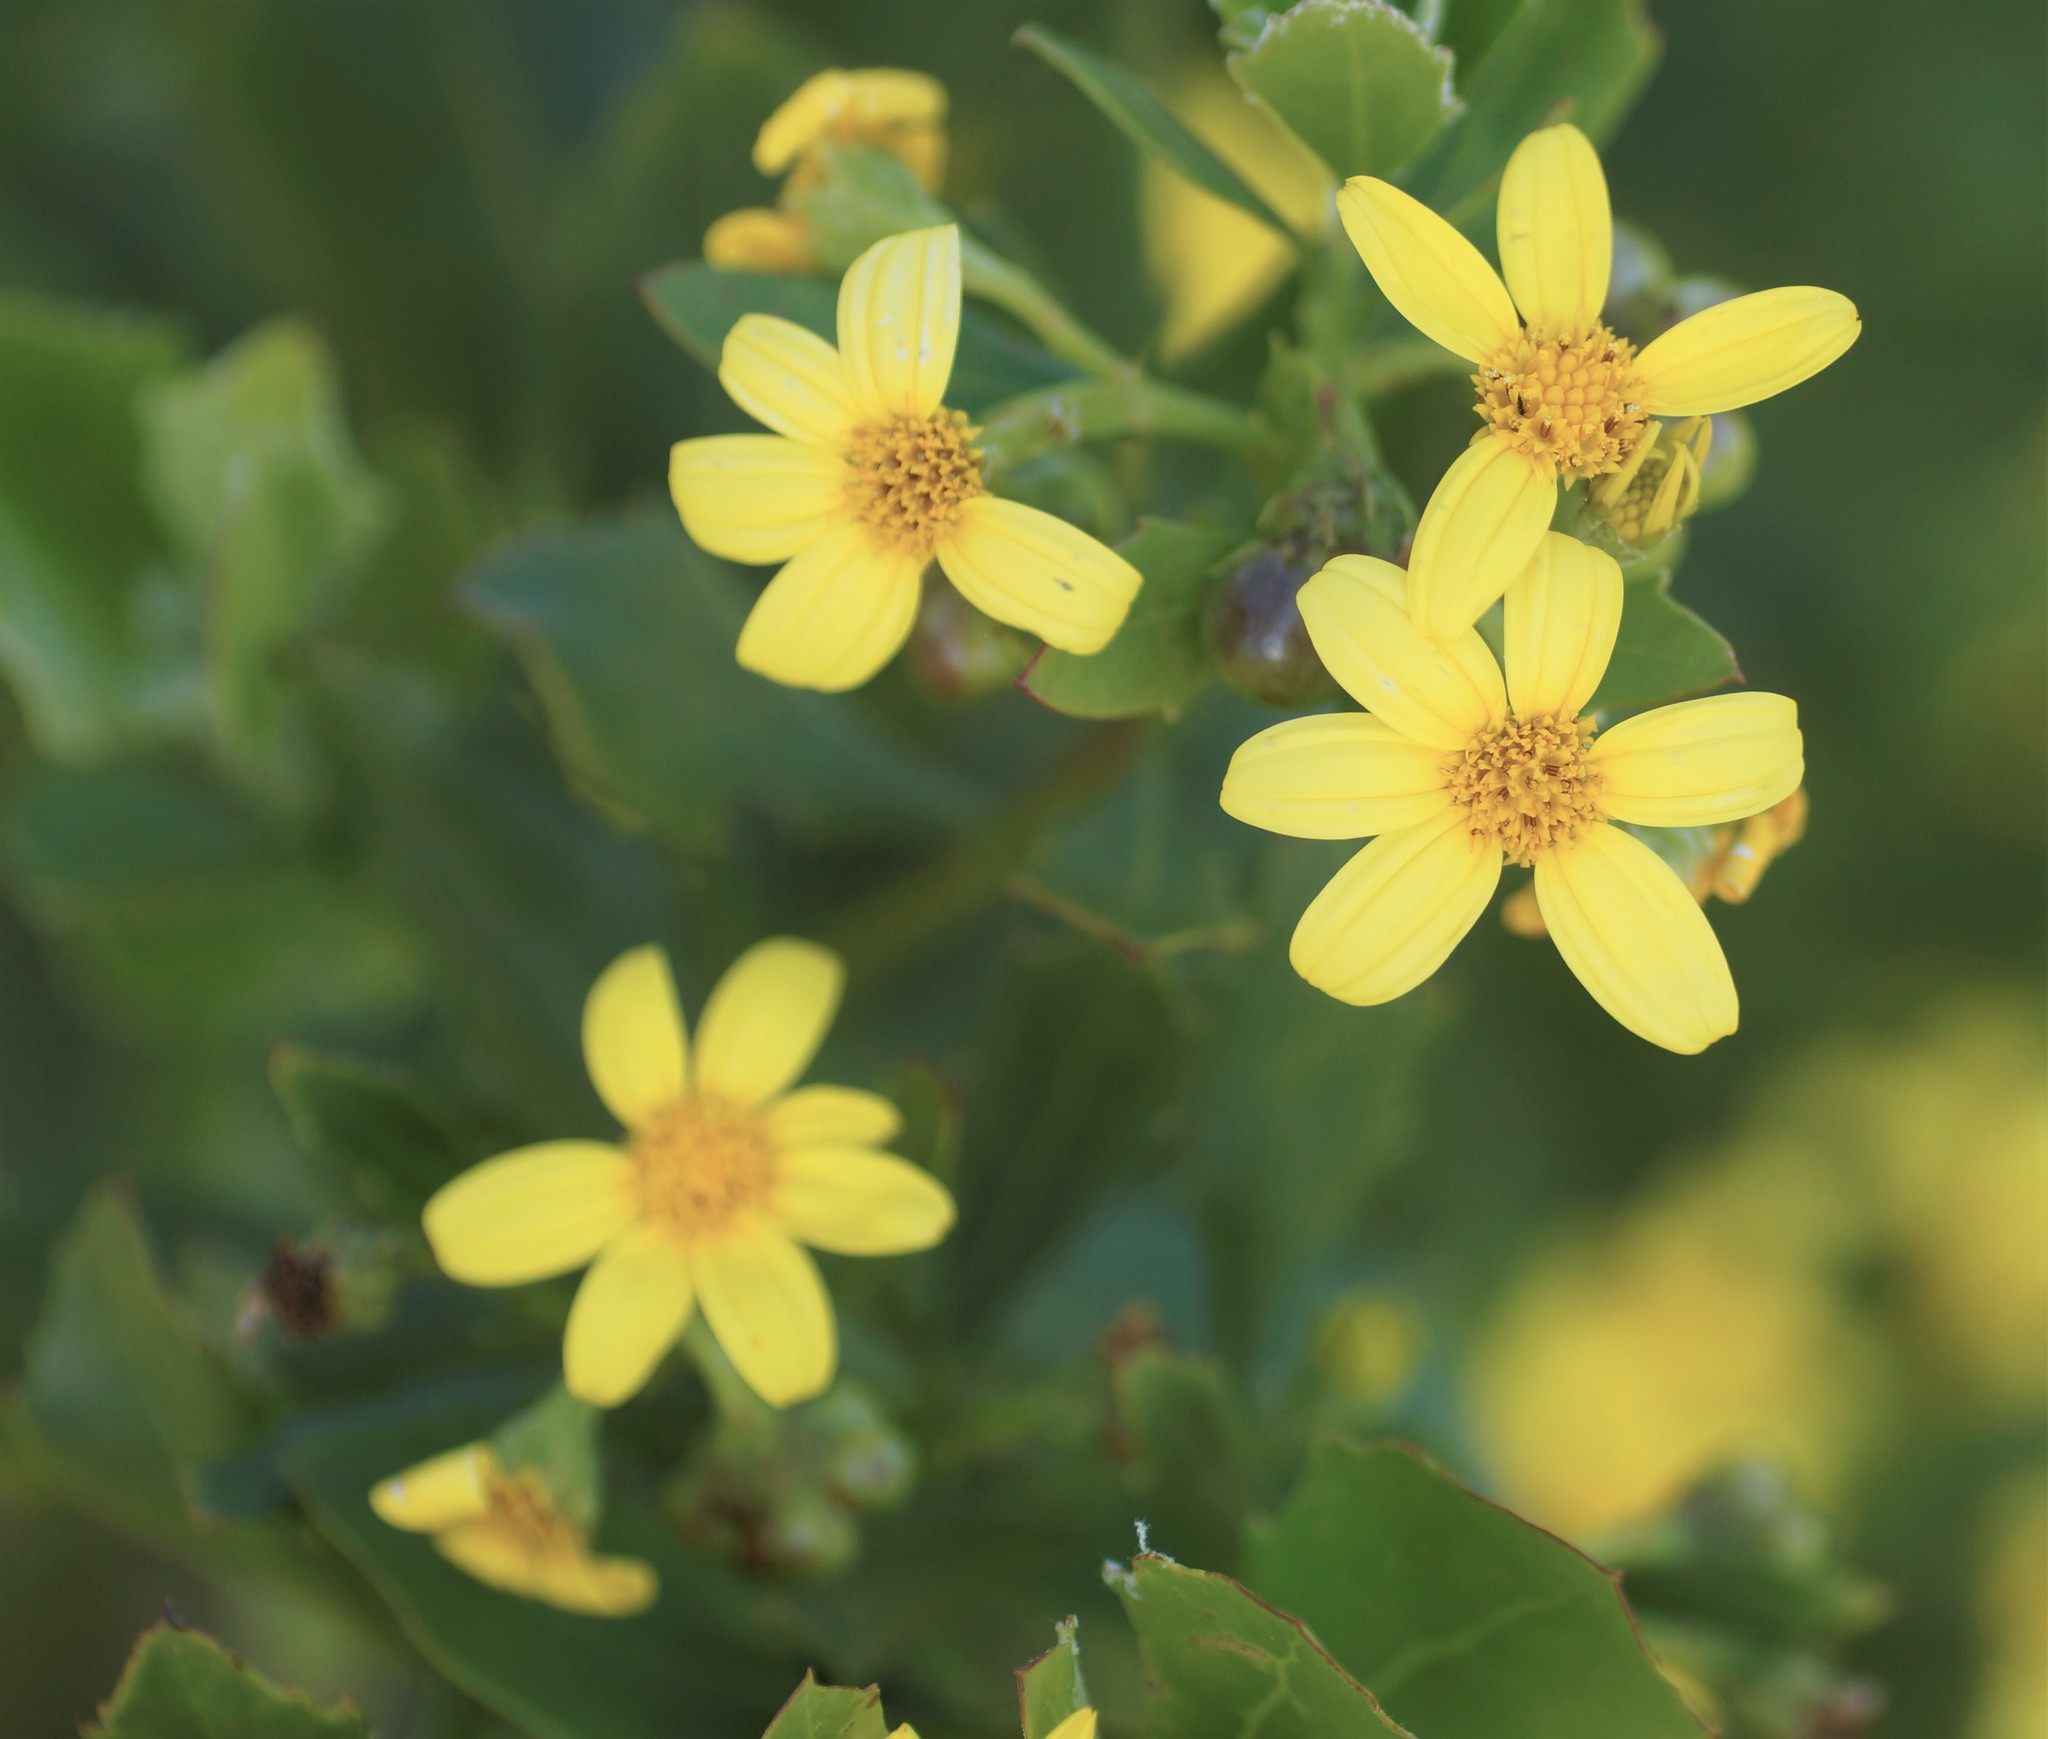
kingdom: Plantae
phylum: Tracheophyta
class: Magnoliopsida
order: Asterales
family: Asteraceae
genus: Osteospermum
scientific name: Osteospermum moniliferum
